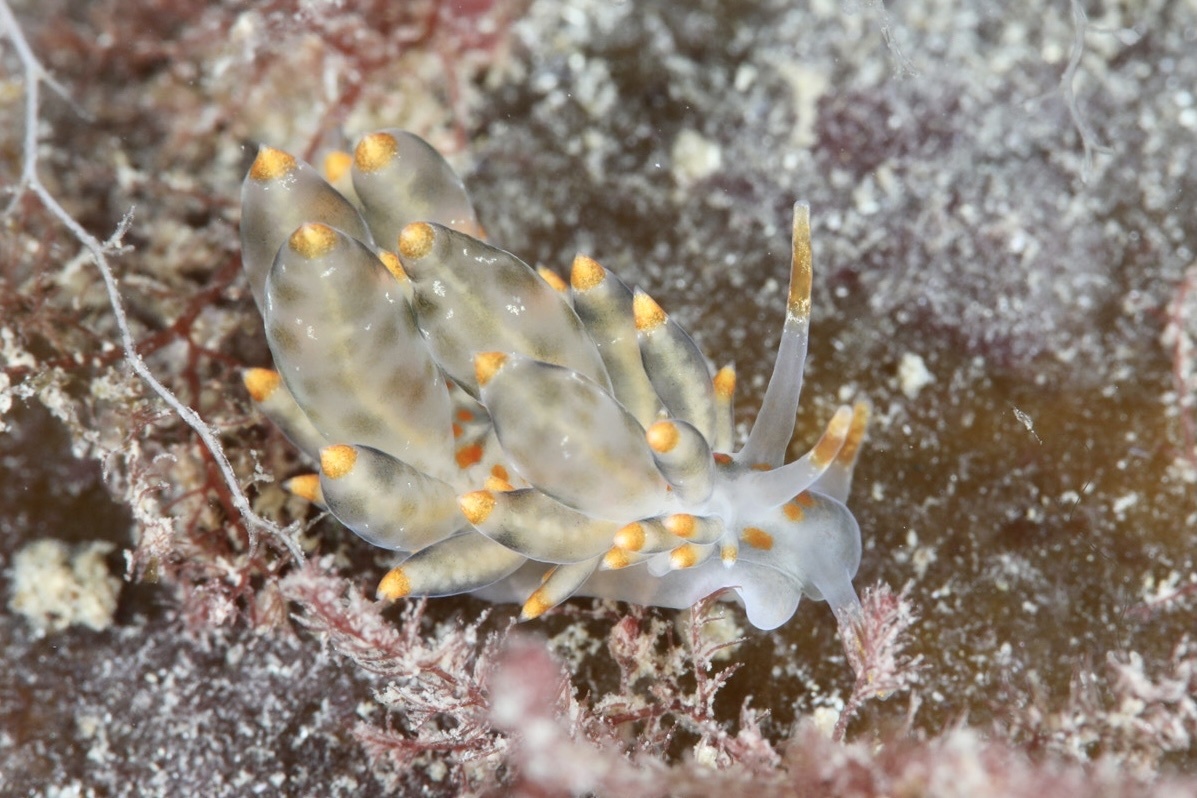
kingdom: Animalia
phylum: Mollusca
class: Gastropoda
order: Nudibranchia
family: Eubranchidae
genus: Amphorina
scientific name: Amphorina andra
